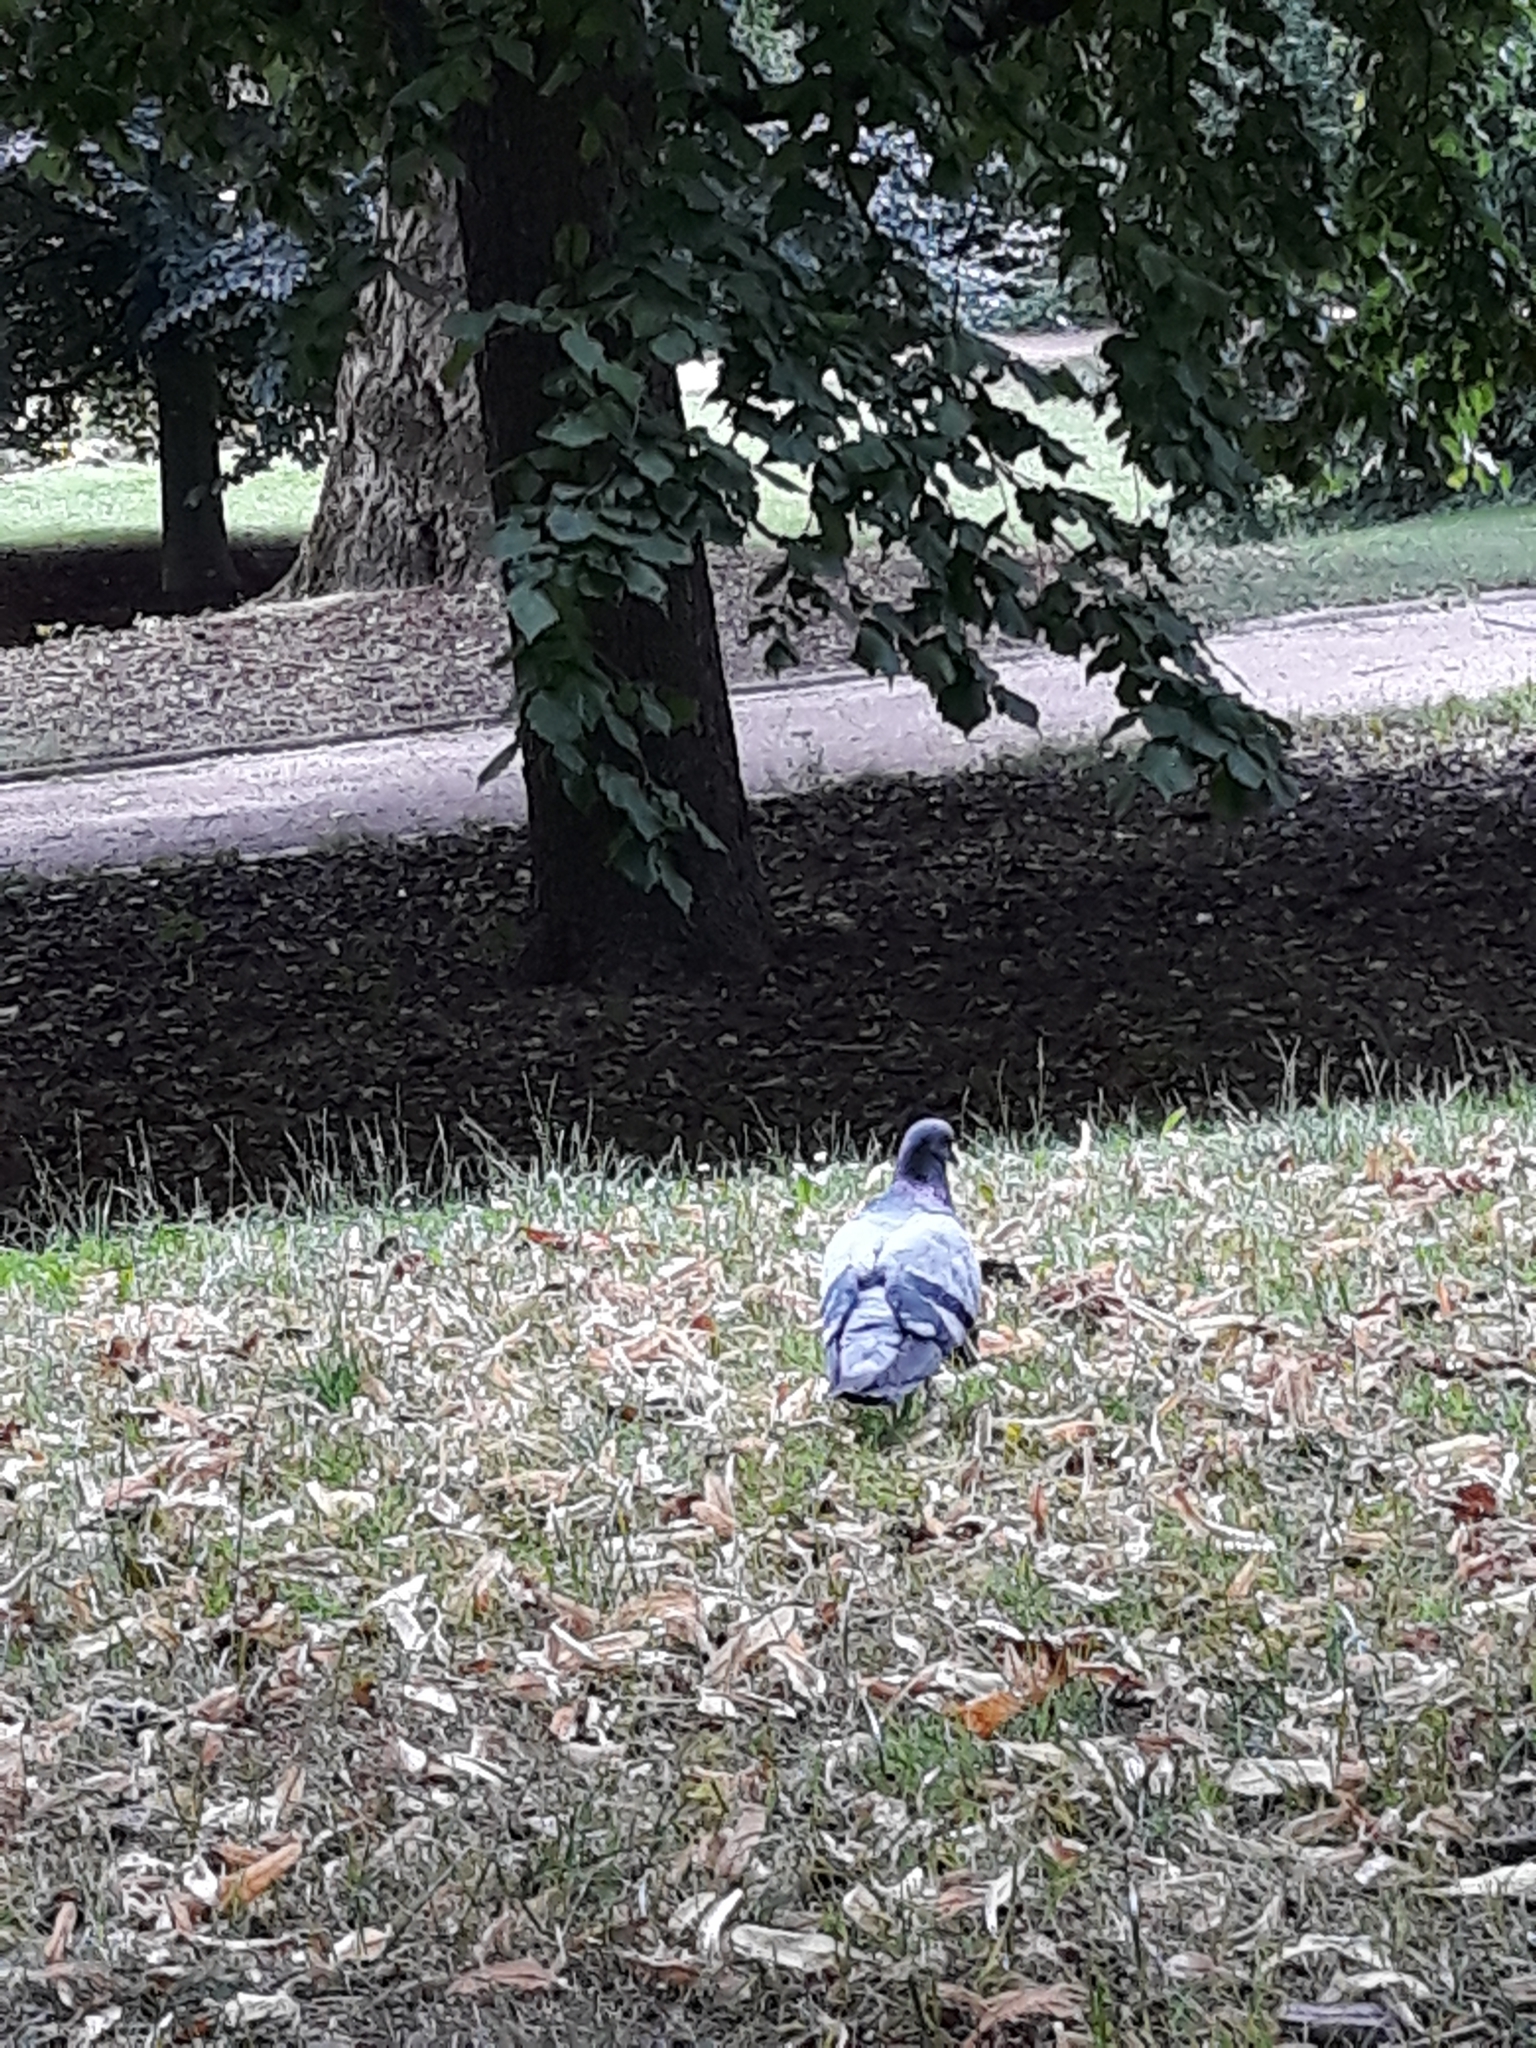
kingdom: Animalia
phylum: Chordata
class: Aves
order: Columbiformes
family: Columbidae
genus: Columba
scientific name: Columba livia
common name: Rock pigeon
